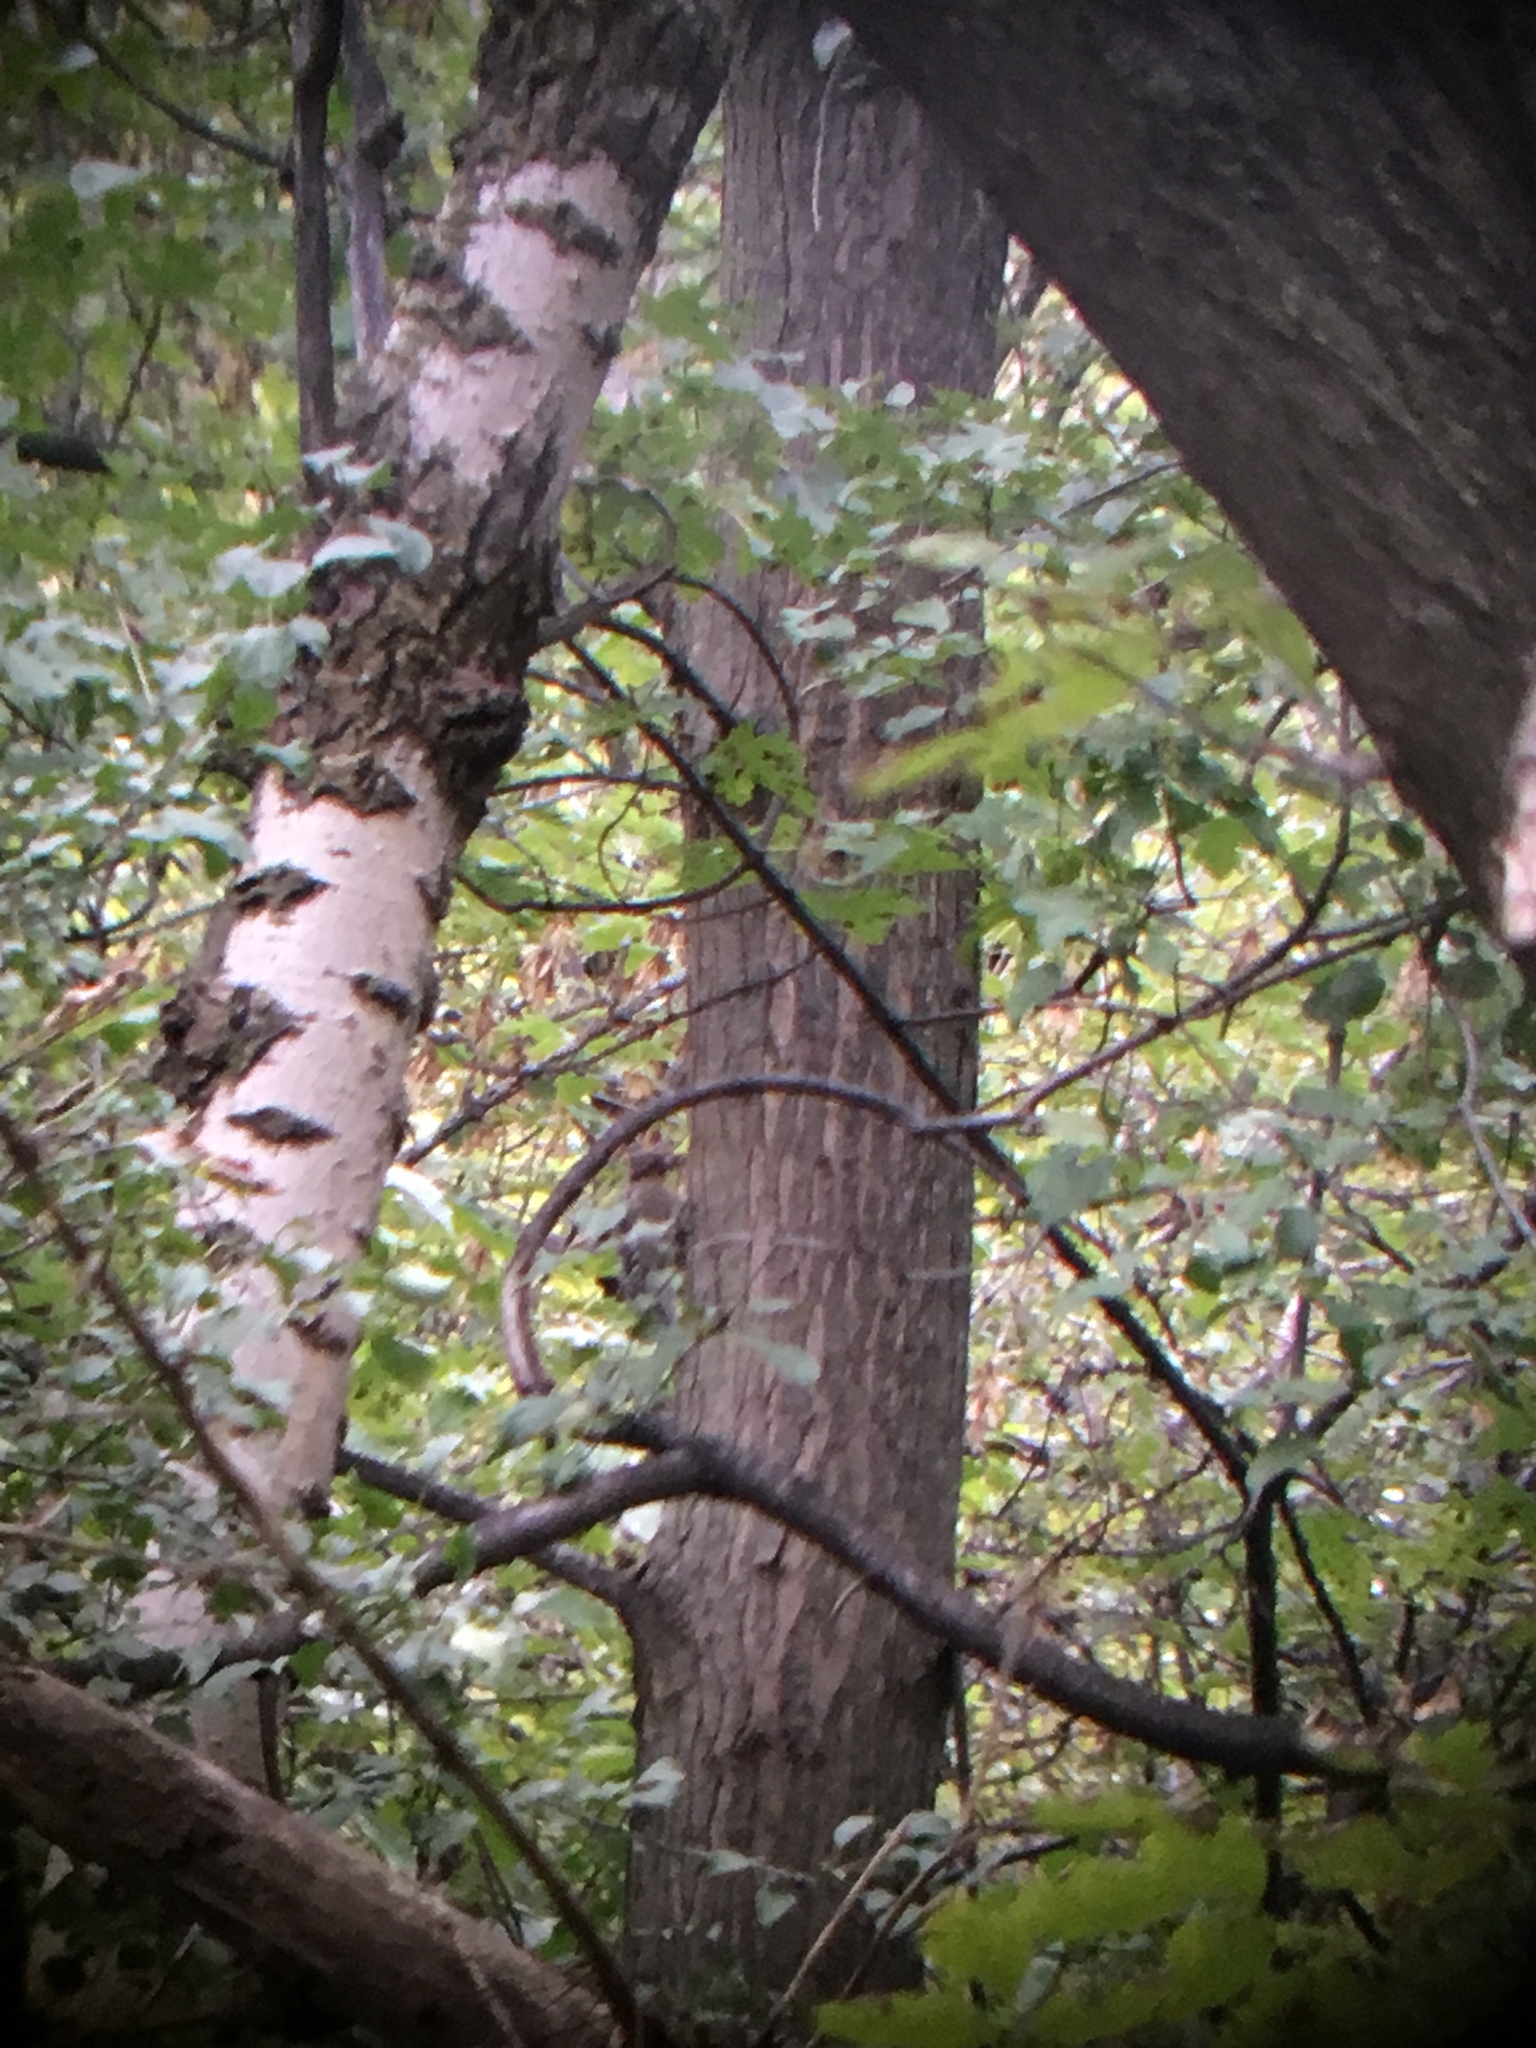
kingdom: Animalia
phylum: Chordata
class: Aves
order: Piciformes
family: Picidae
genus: Sphyrapicus
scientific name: Sphyrapicus varius
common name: Yellow-bellied sapsucker
